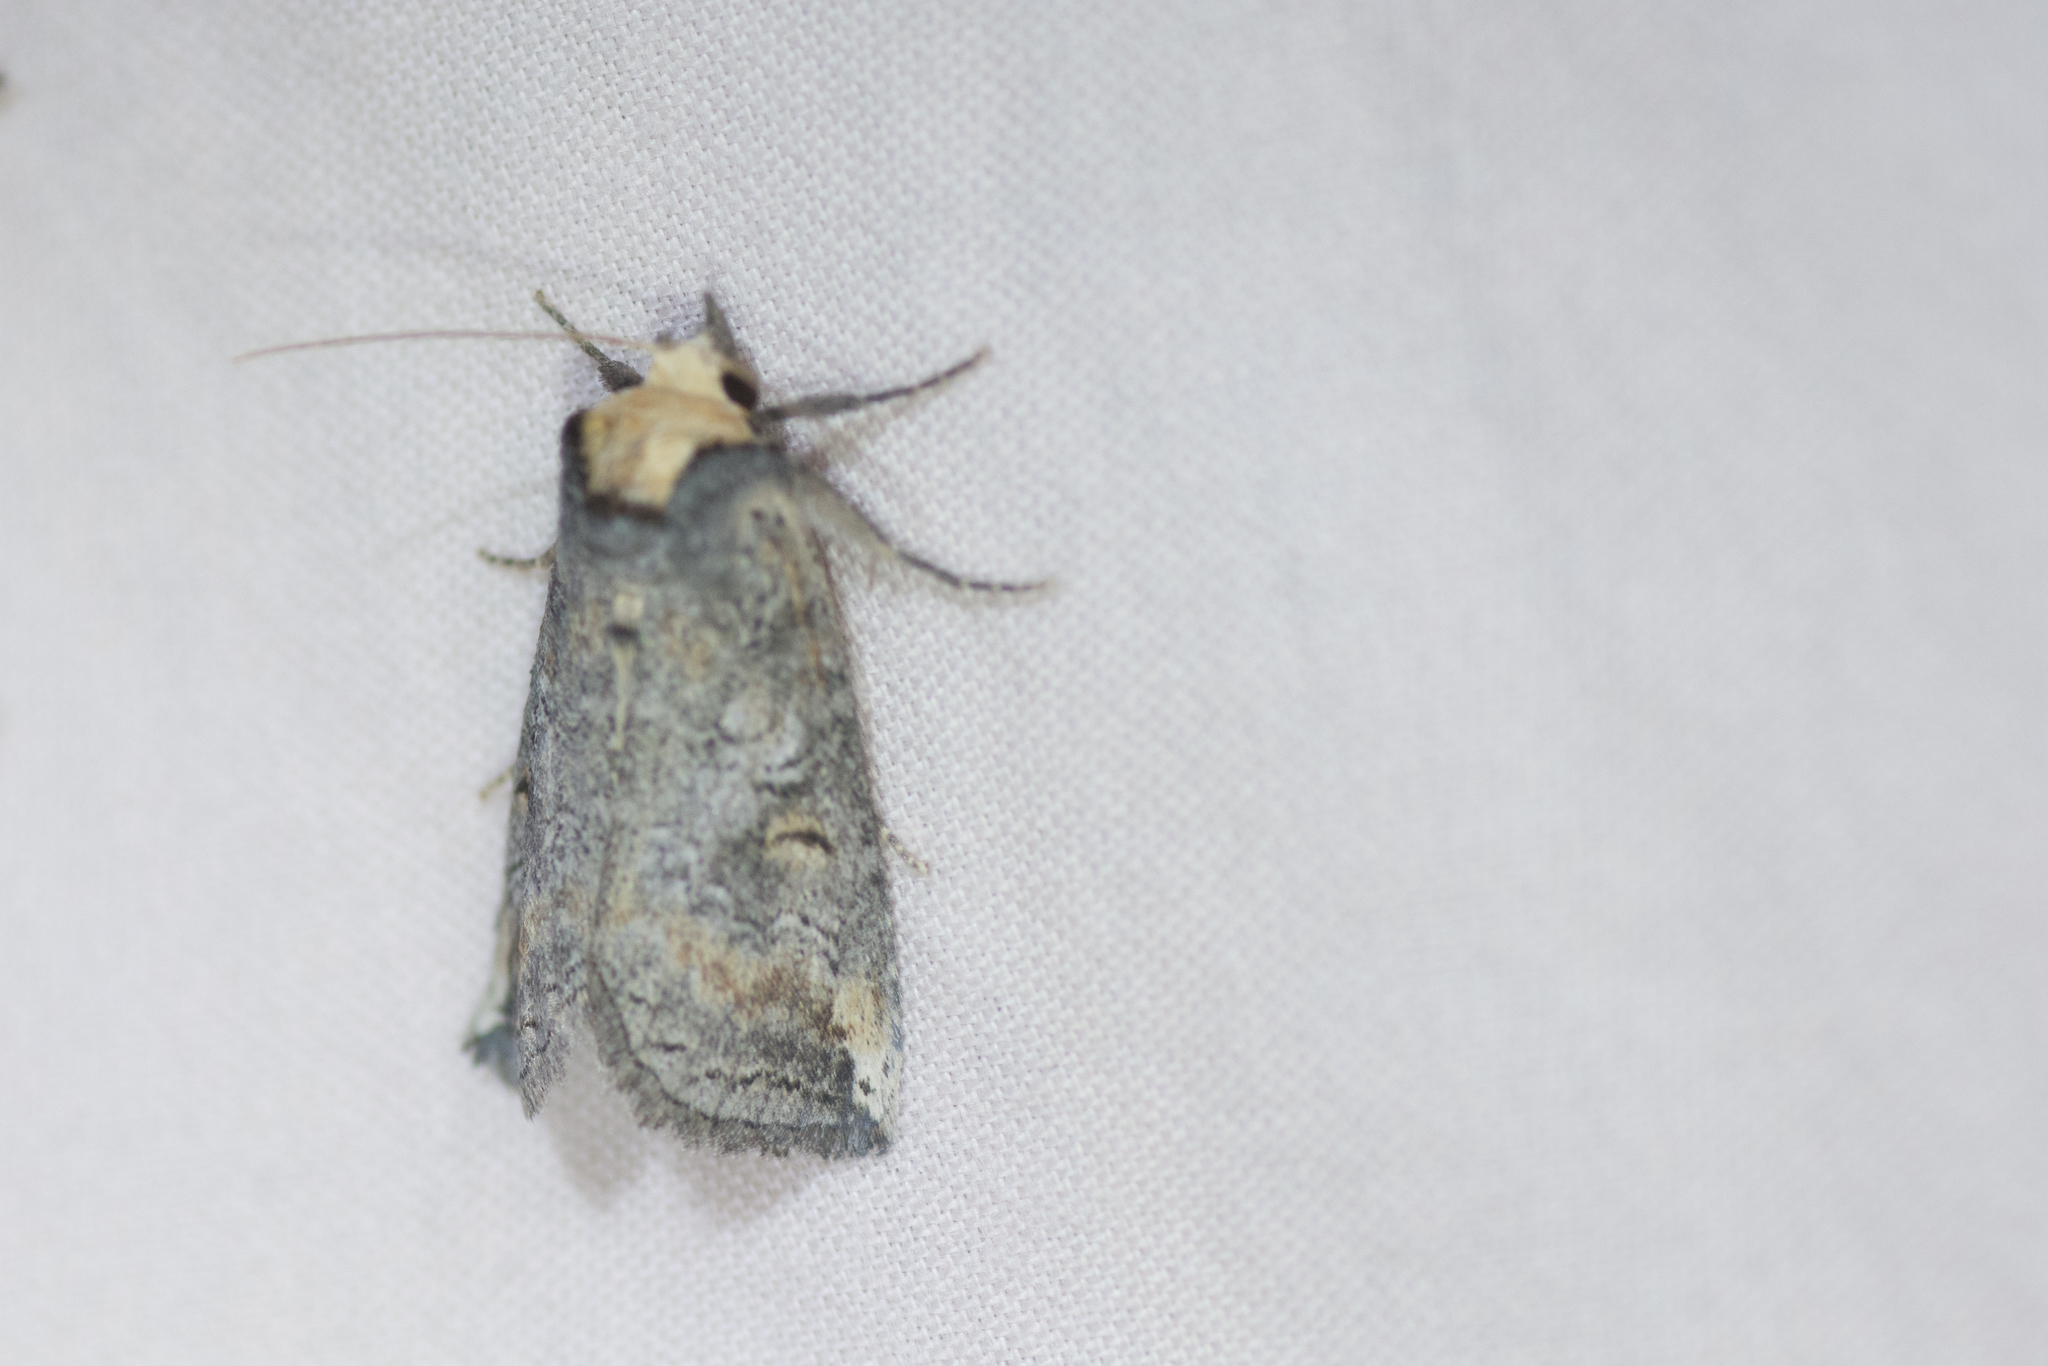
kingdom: Animalia
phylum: Arthropoda
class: Insecta
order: Lepidoptera
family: Notodontidae
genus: Elasmia
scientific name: Elasmia packardii
